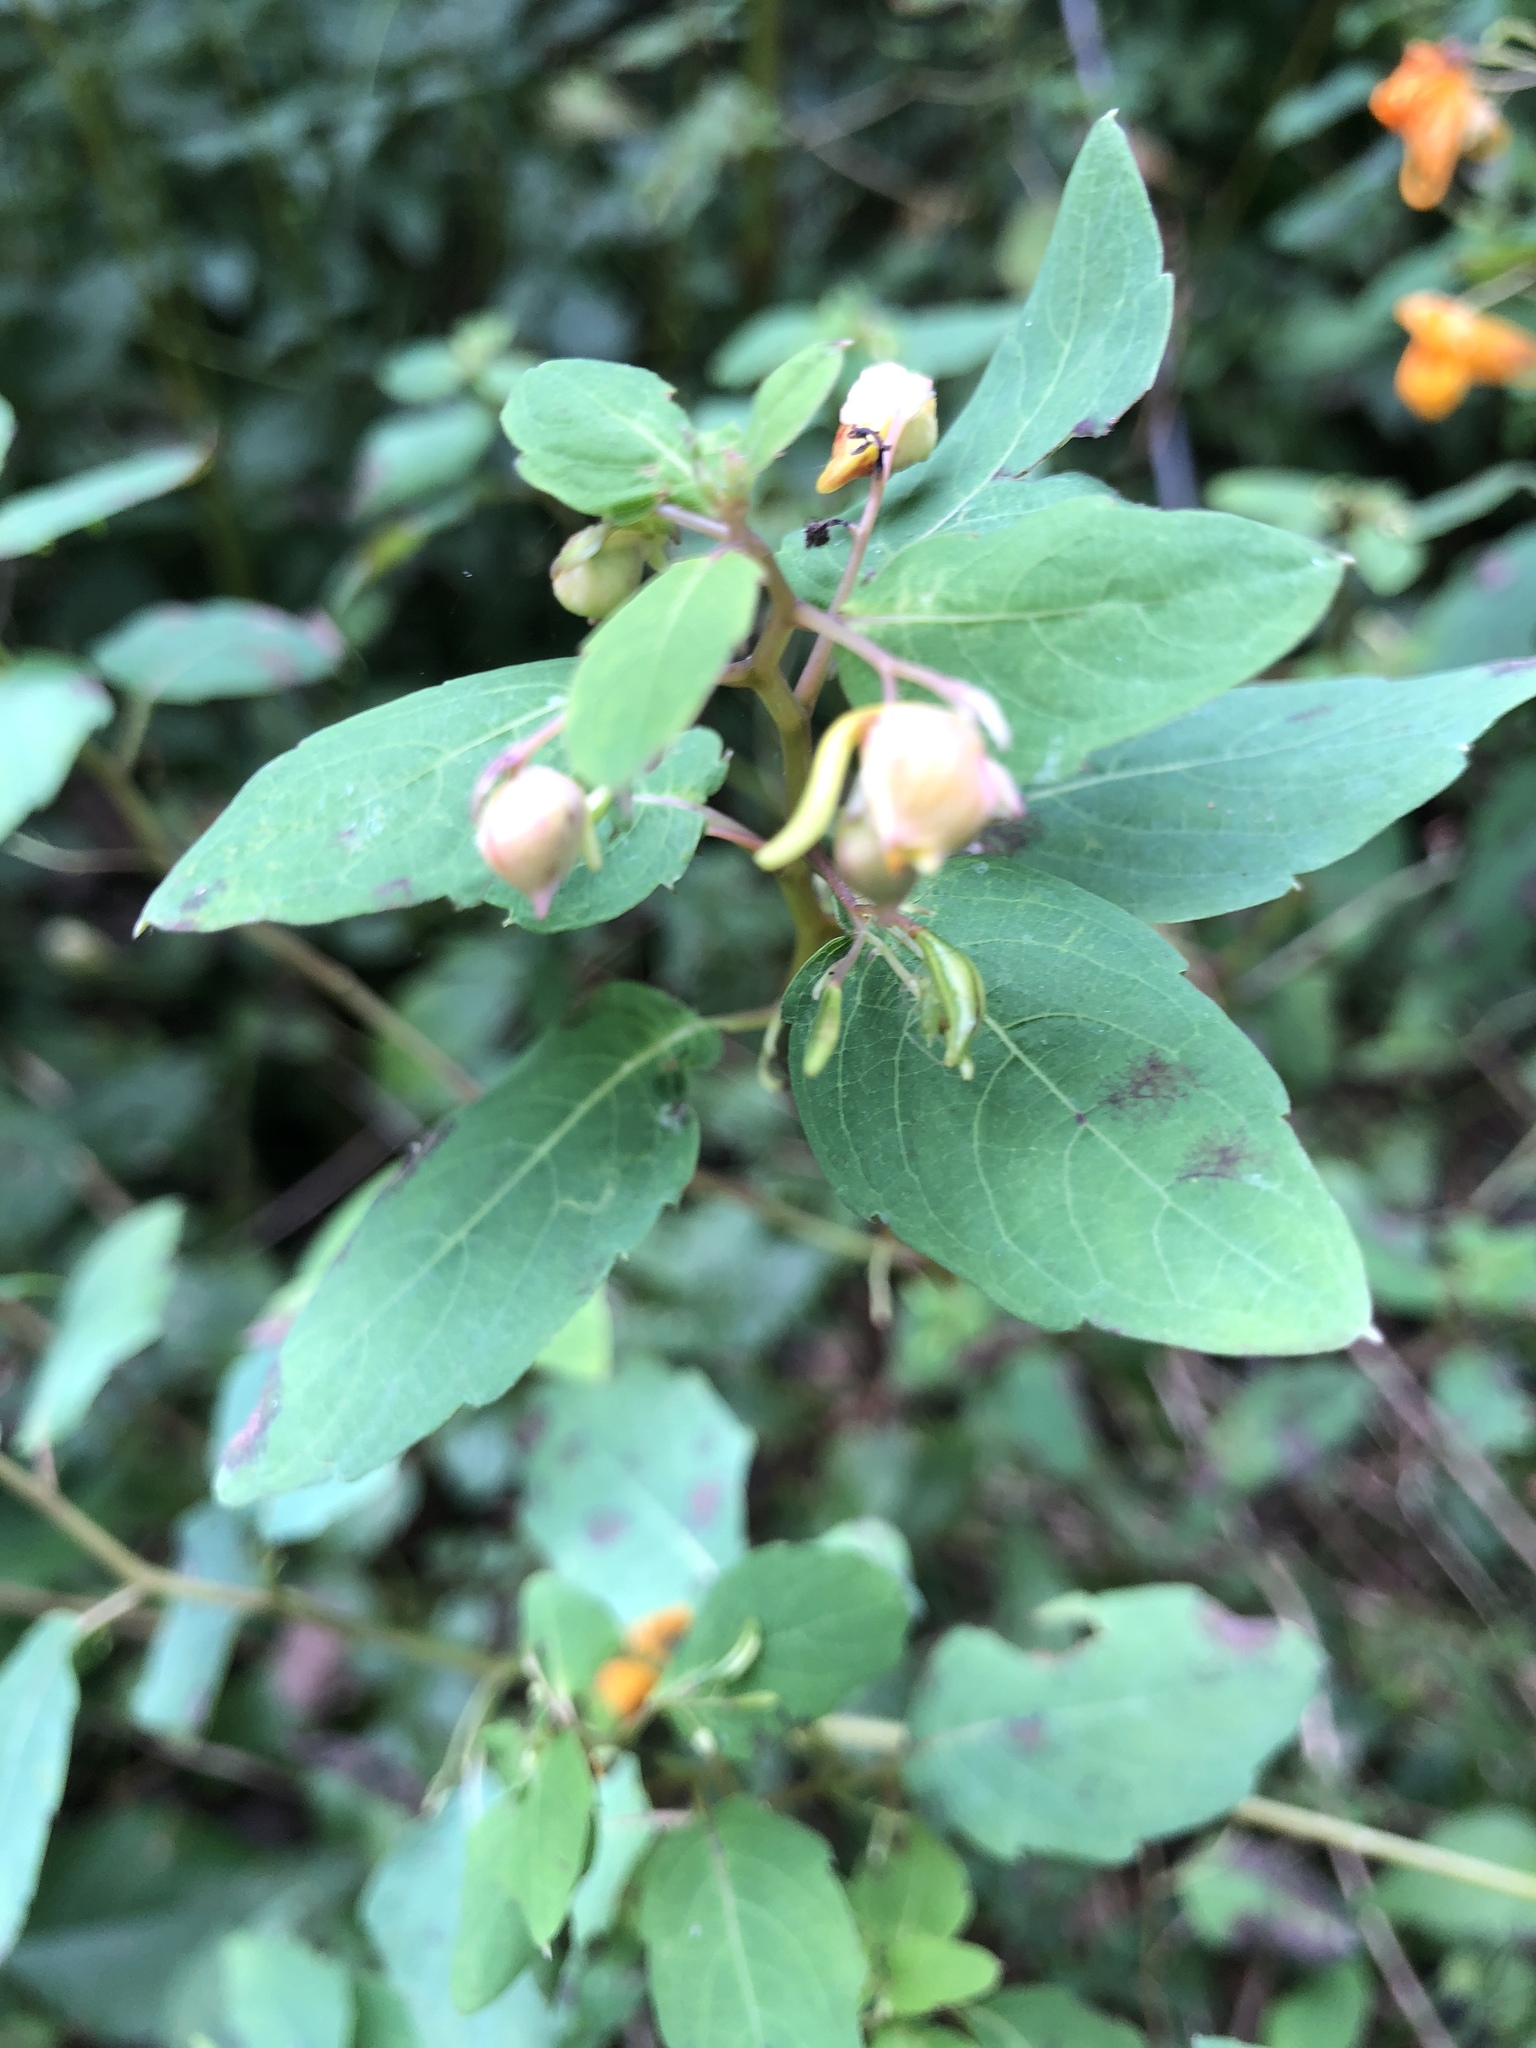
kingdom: Plantae
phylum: Tracheophyta
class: Magnoliopsida
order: Ericales
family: Balsaminaceae
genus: Impatiens
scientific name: Impatiens capensis
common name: Orange balsam
